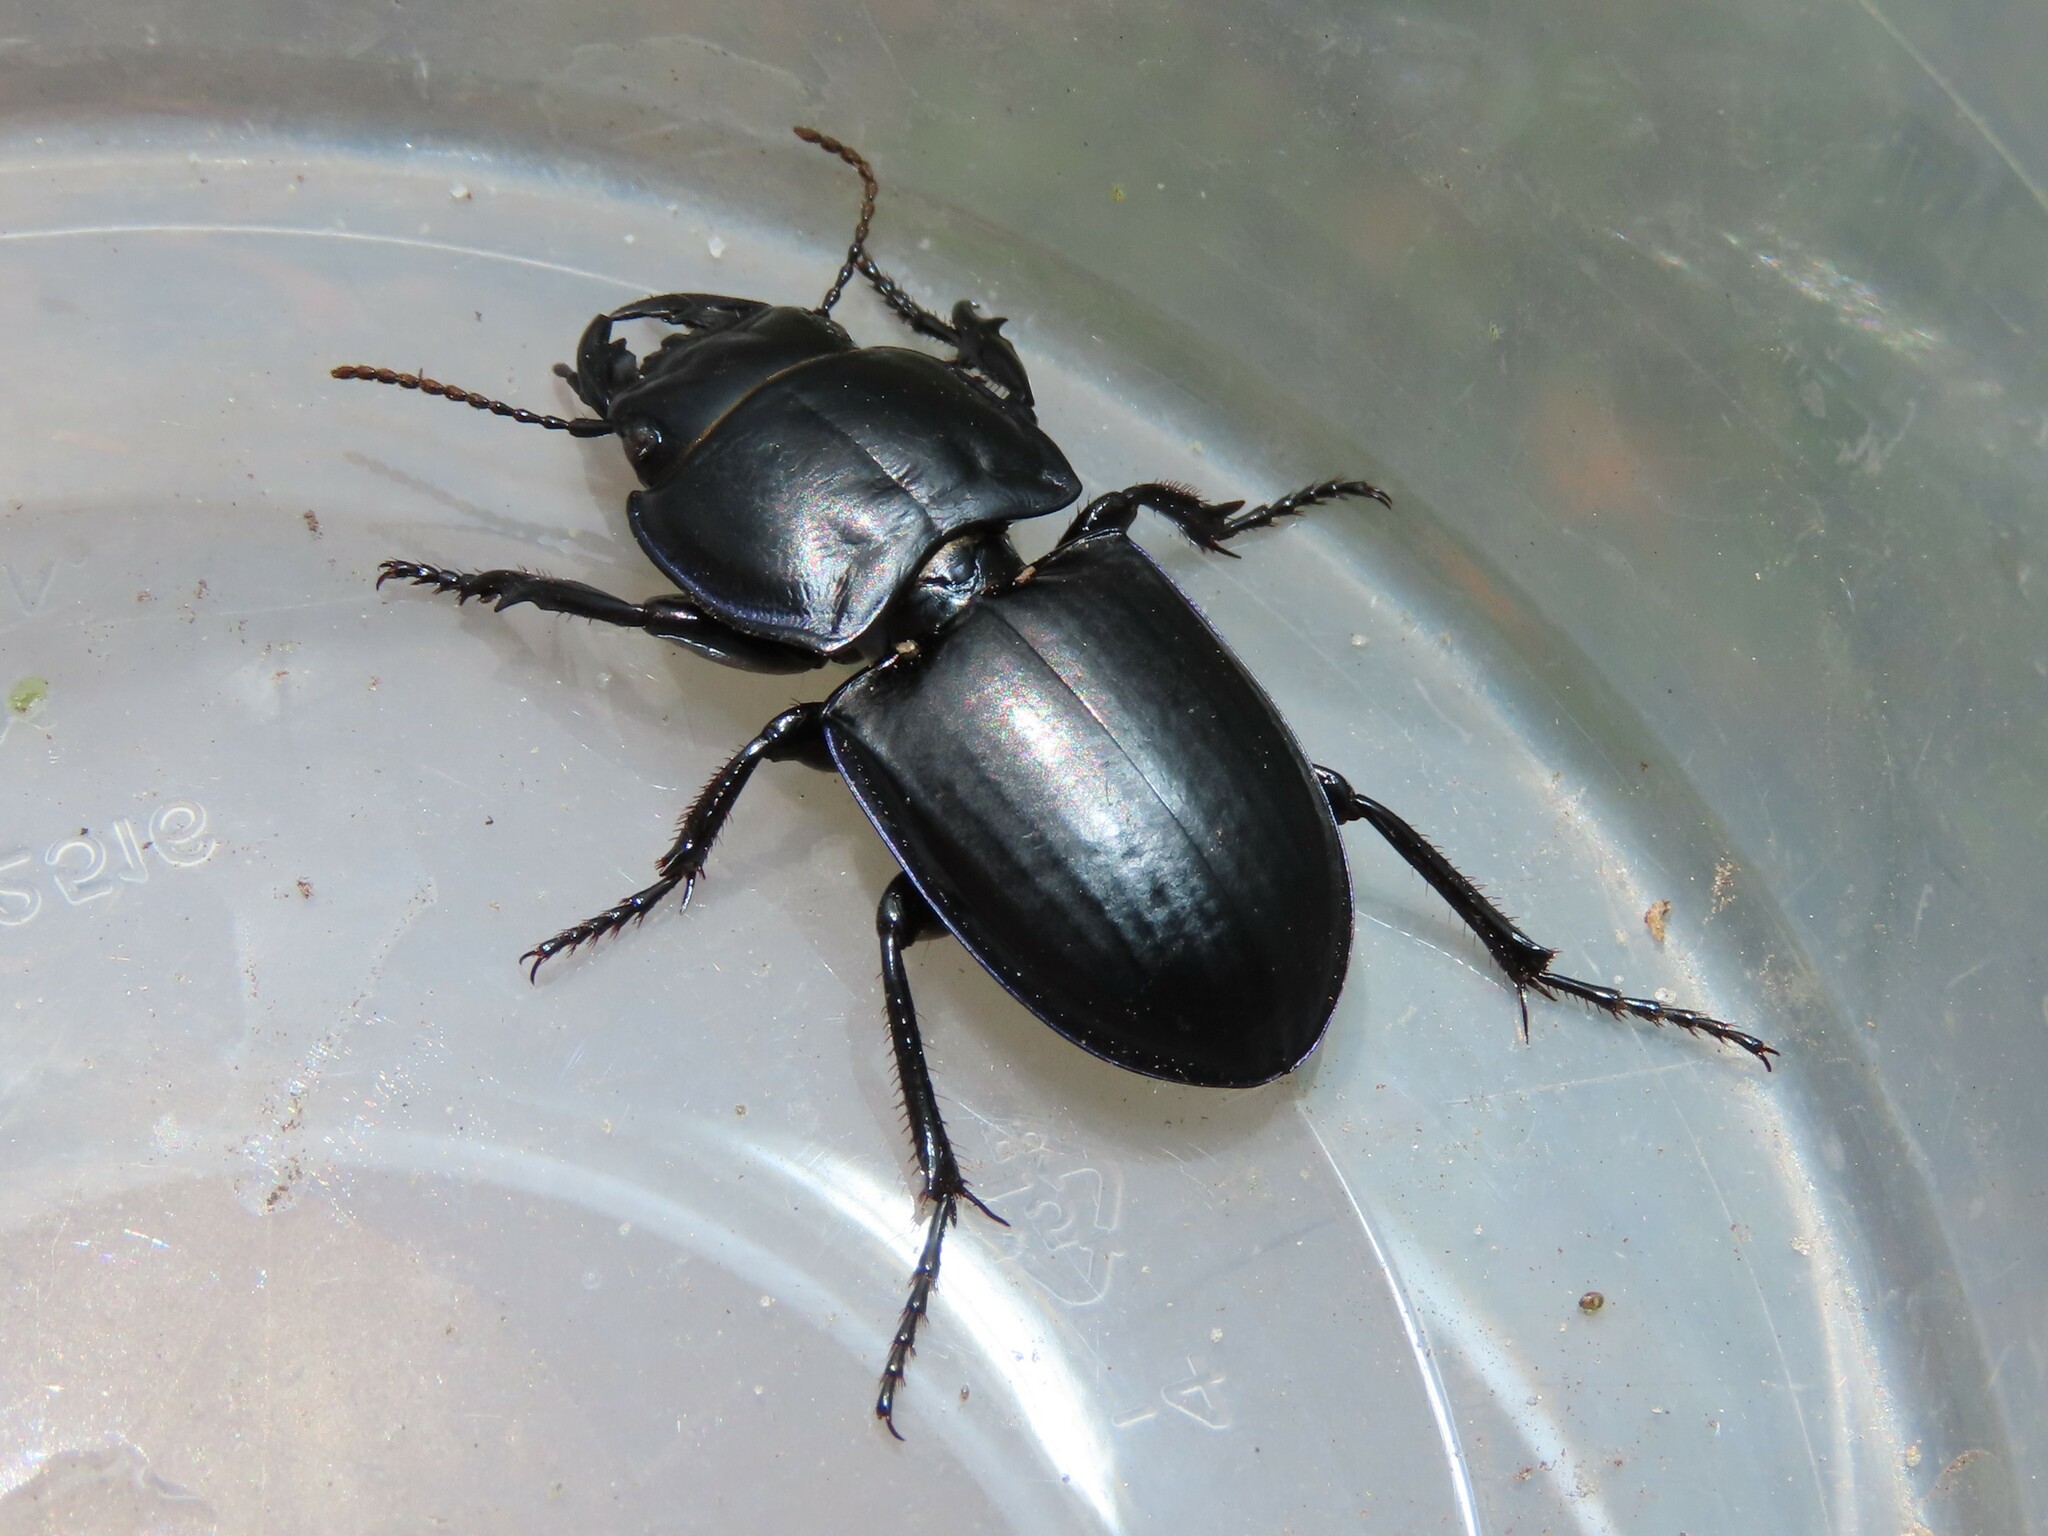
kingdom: Animalia
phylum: Arthropoda
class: Insecta
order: Coleoptera
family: Carabidae
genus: Pasimachus
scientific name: Pasimachus sublaevis
